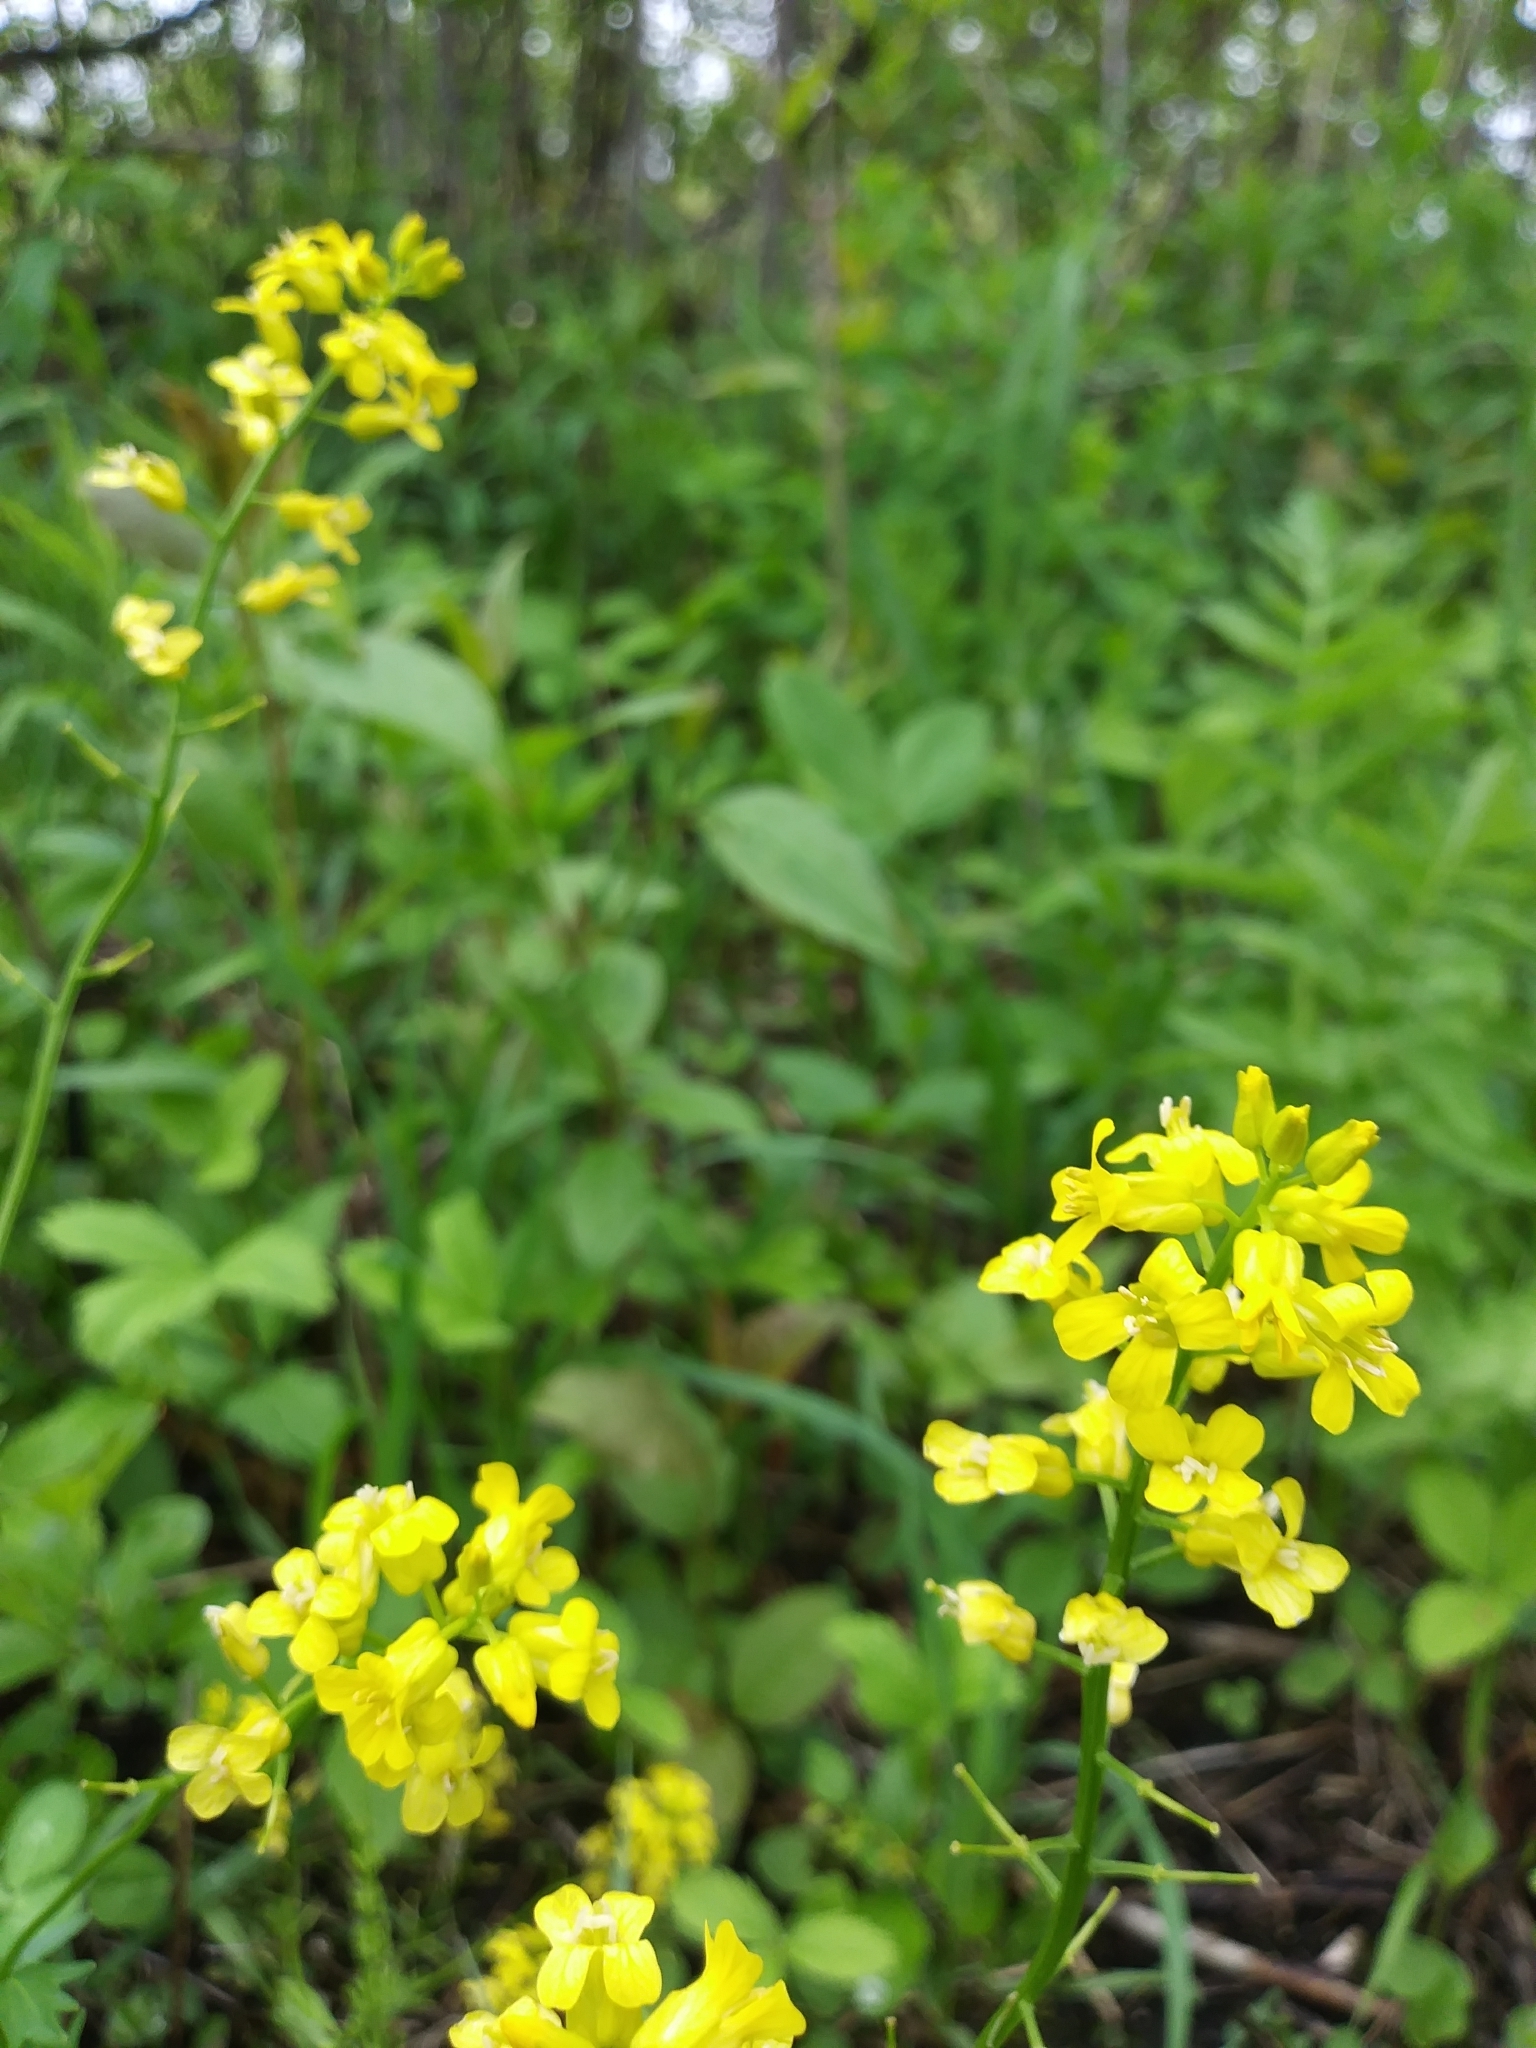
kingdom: Plantae
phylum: Tracheophyta
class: Magnoliopsida
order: Brassicales
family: Brassicaceae
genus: Barbarea
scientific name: Barbarea vulgaris
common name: Cressy-greens
